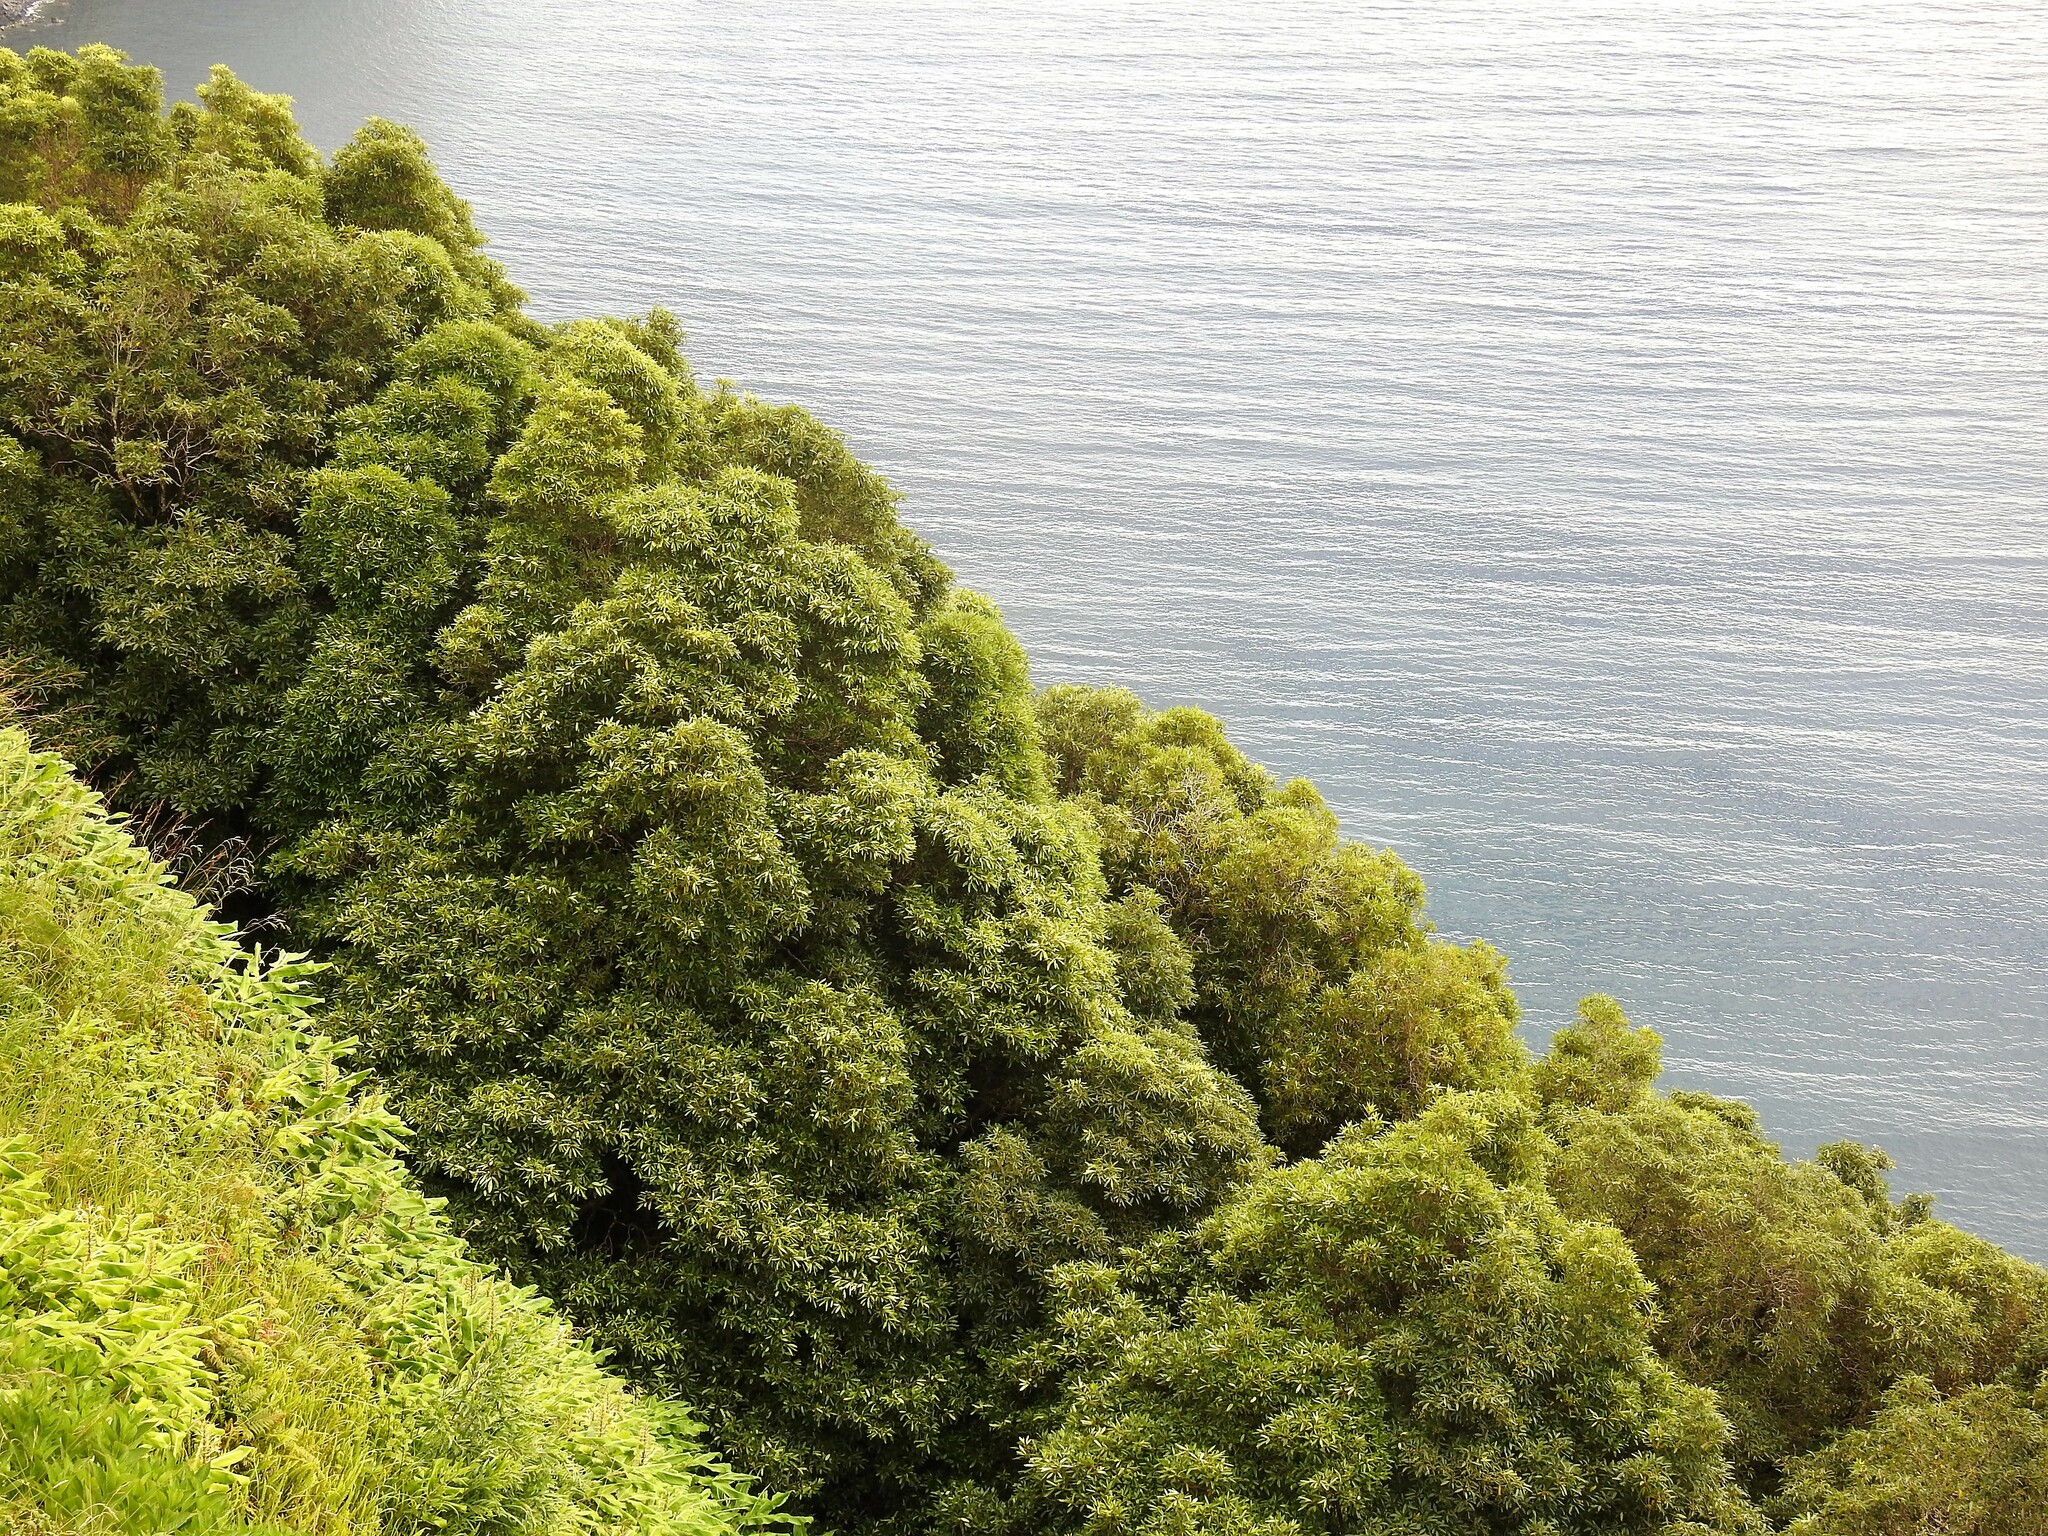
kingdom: Plantae
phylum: Tracheophyta
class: Magnoliopsida
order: Apiales
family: Pittosporaceae
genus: Pittosporum
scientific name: Pittosporum undulatum
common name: Australian cheesewood
